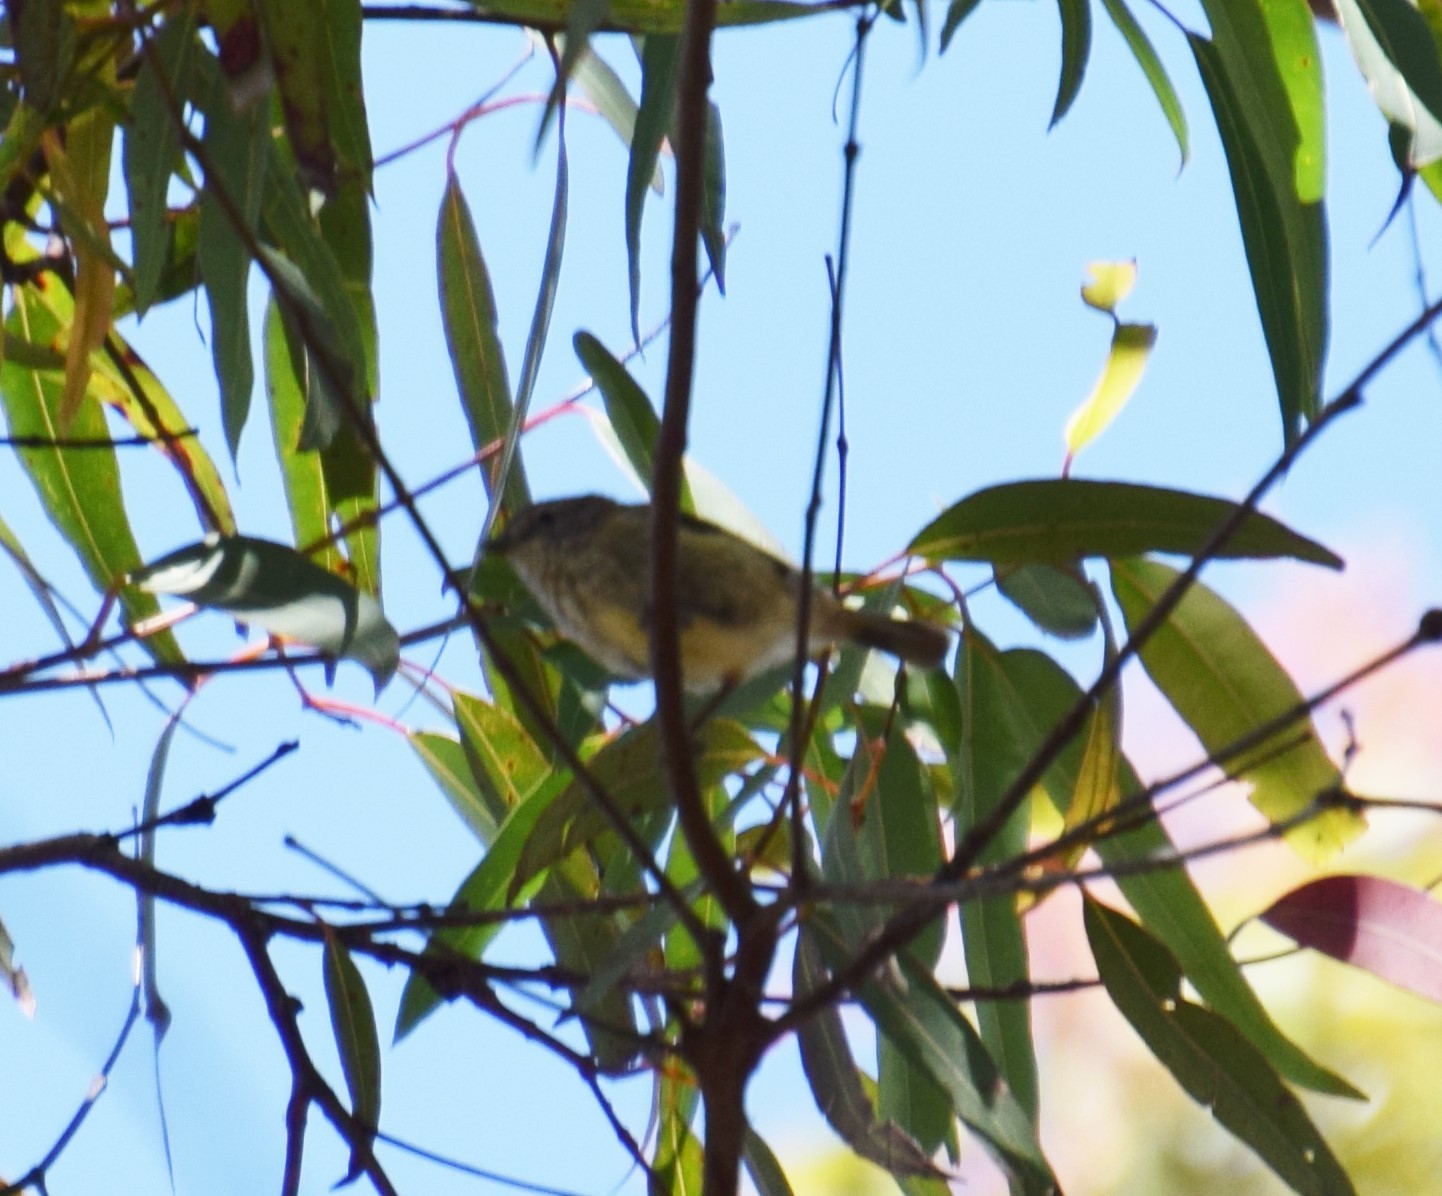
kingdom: Animalia
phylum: Chordata
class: Aves
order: Passeriformes
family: Acanthizidae
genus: Acanthiza
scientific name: Acanthiza lineata
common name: Striated thornbill
